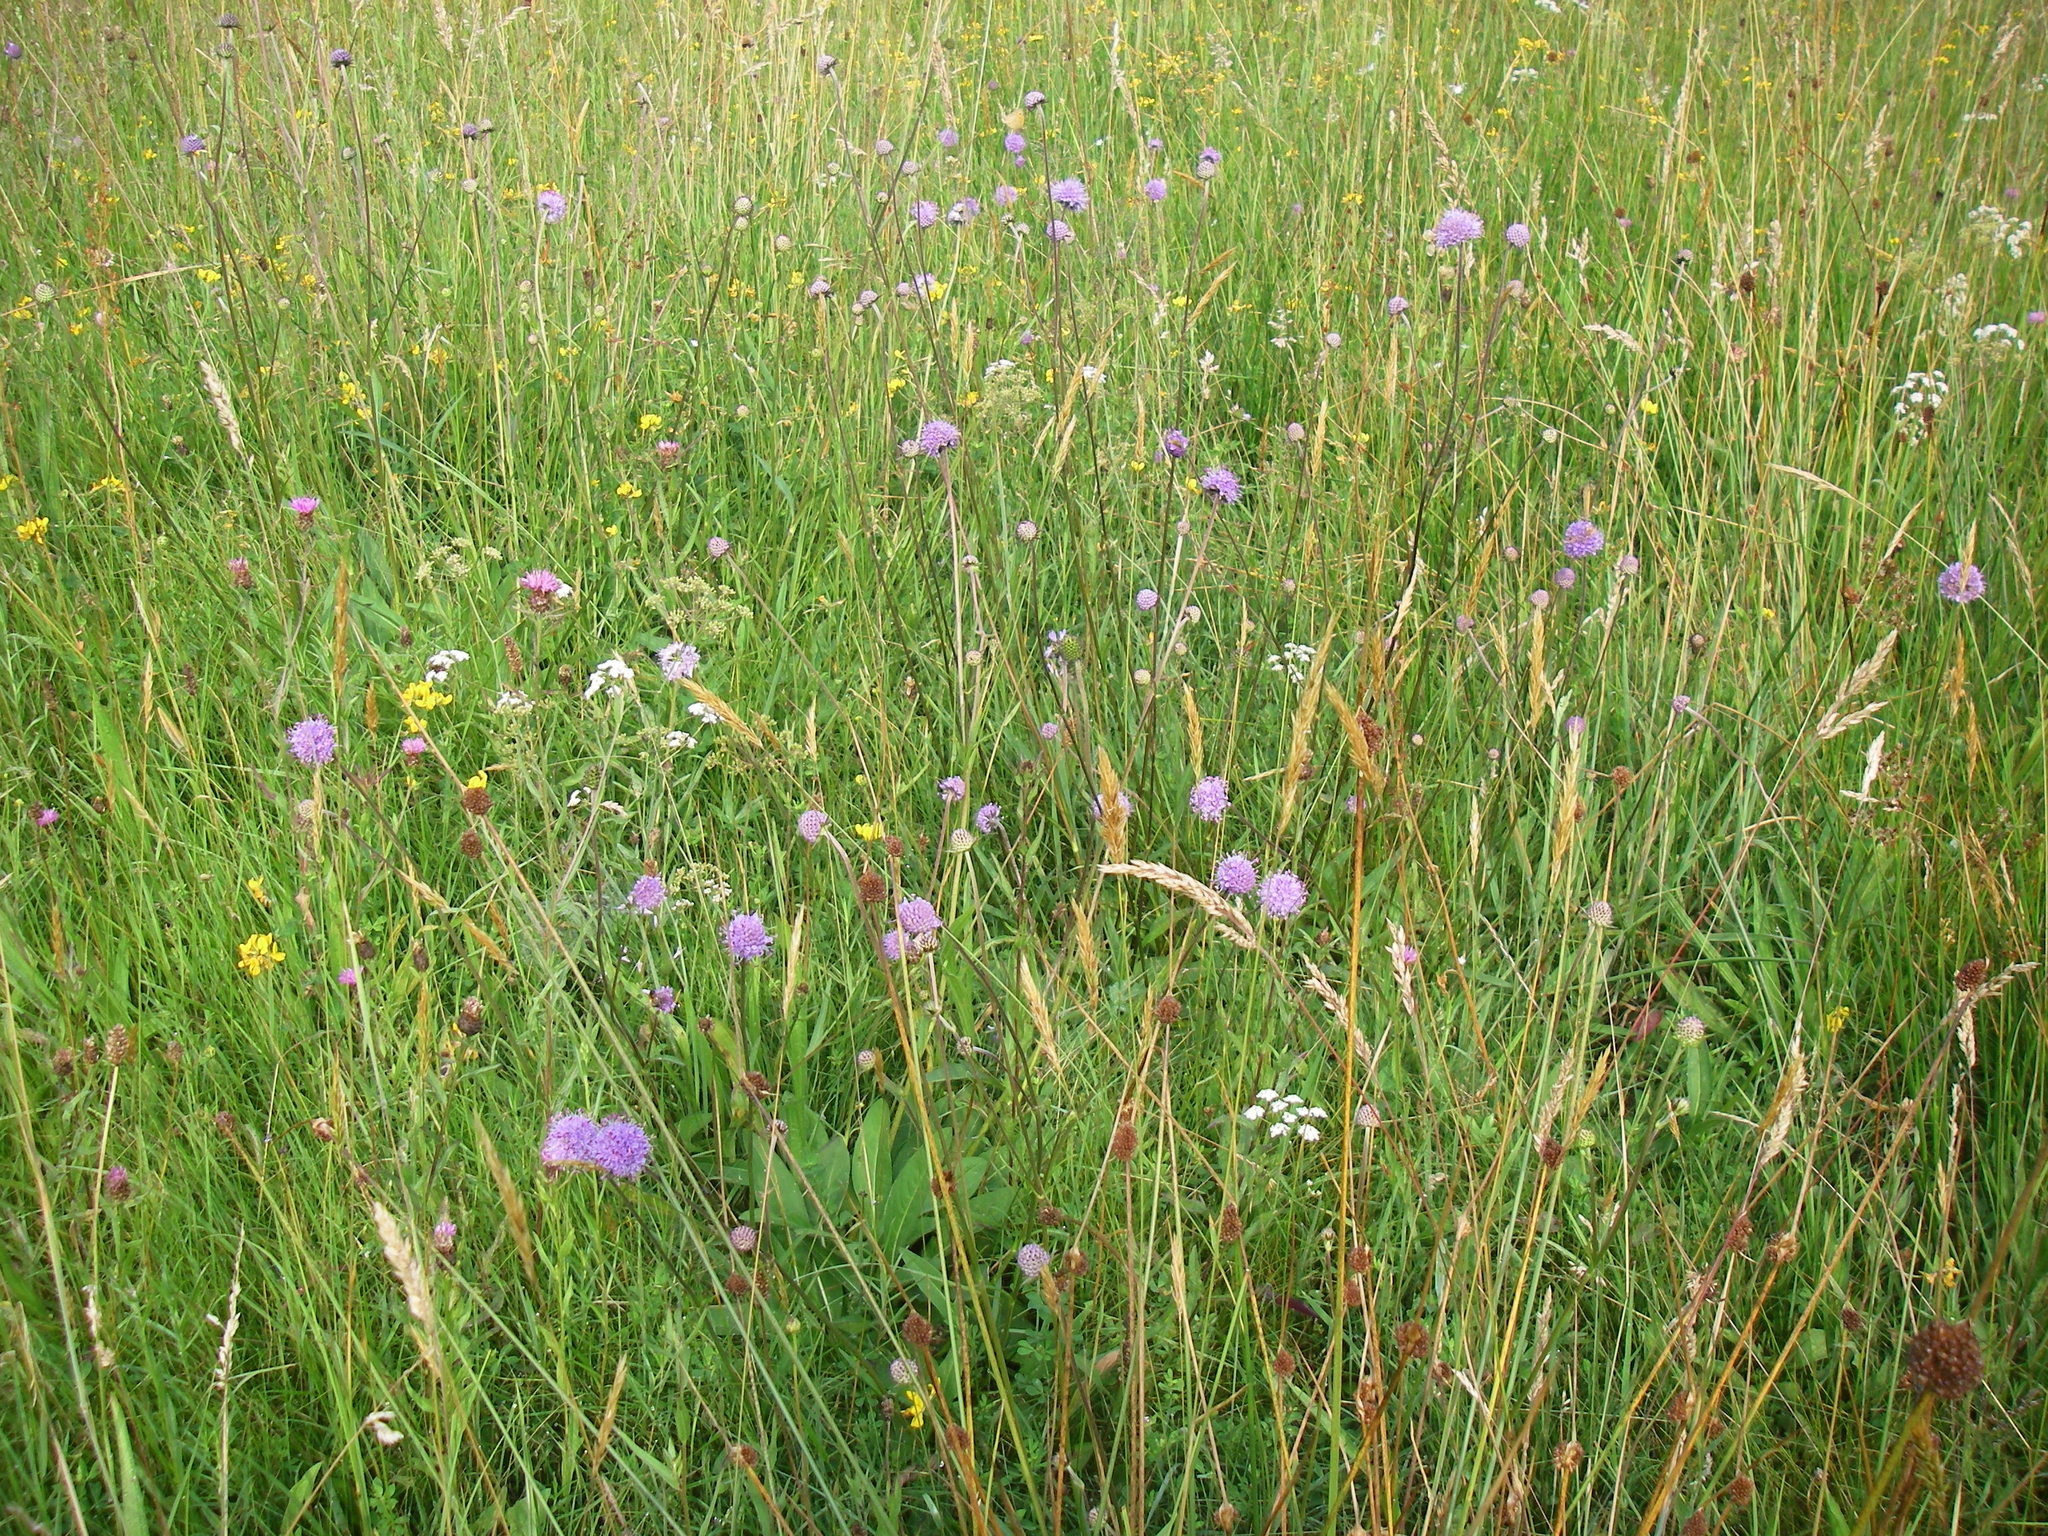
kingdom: Plantae
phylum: Tracheophyta
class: Magnoliopsida
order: Dipsacales
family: Caprifoliaceae
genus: Succisa
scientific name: Succisa pratensis
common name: Devil's-bit
